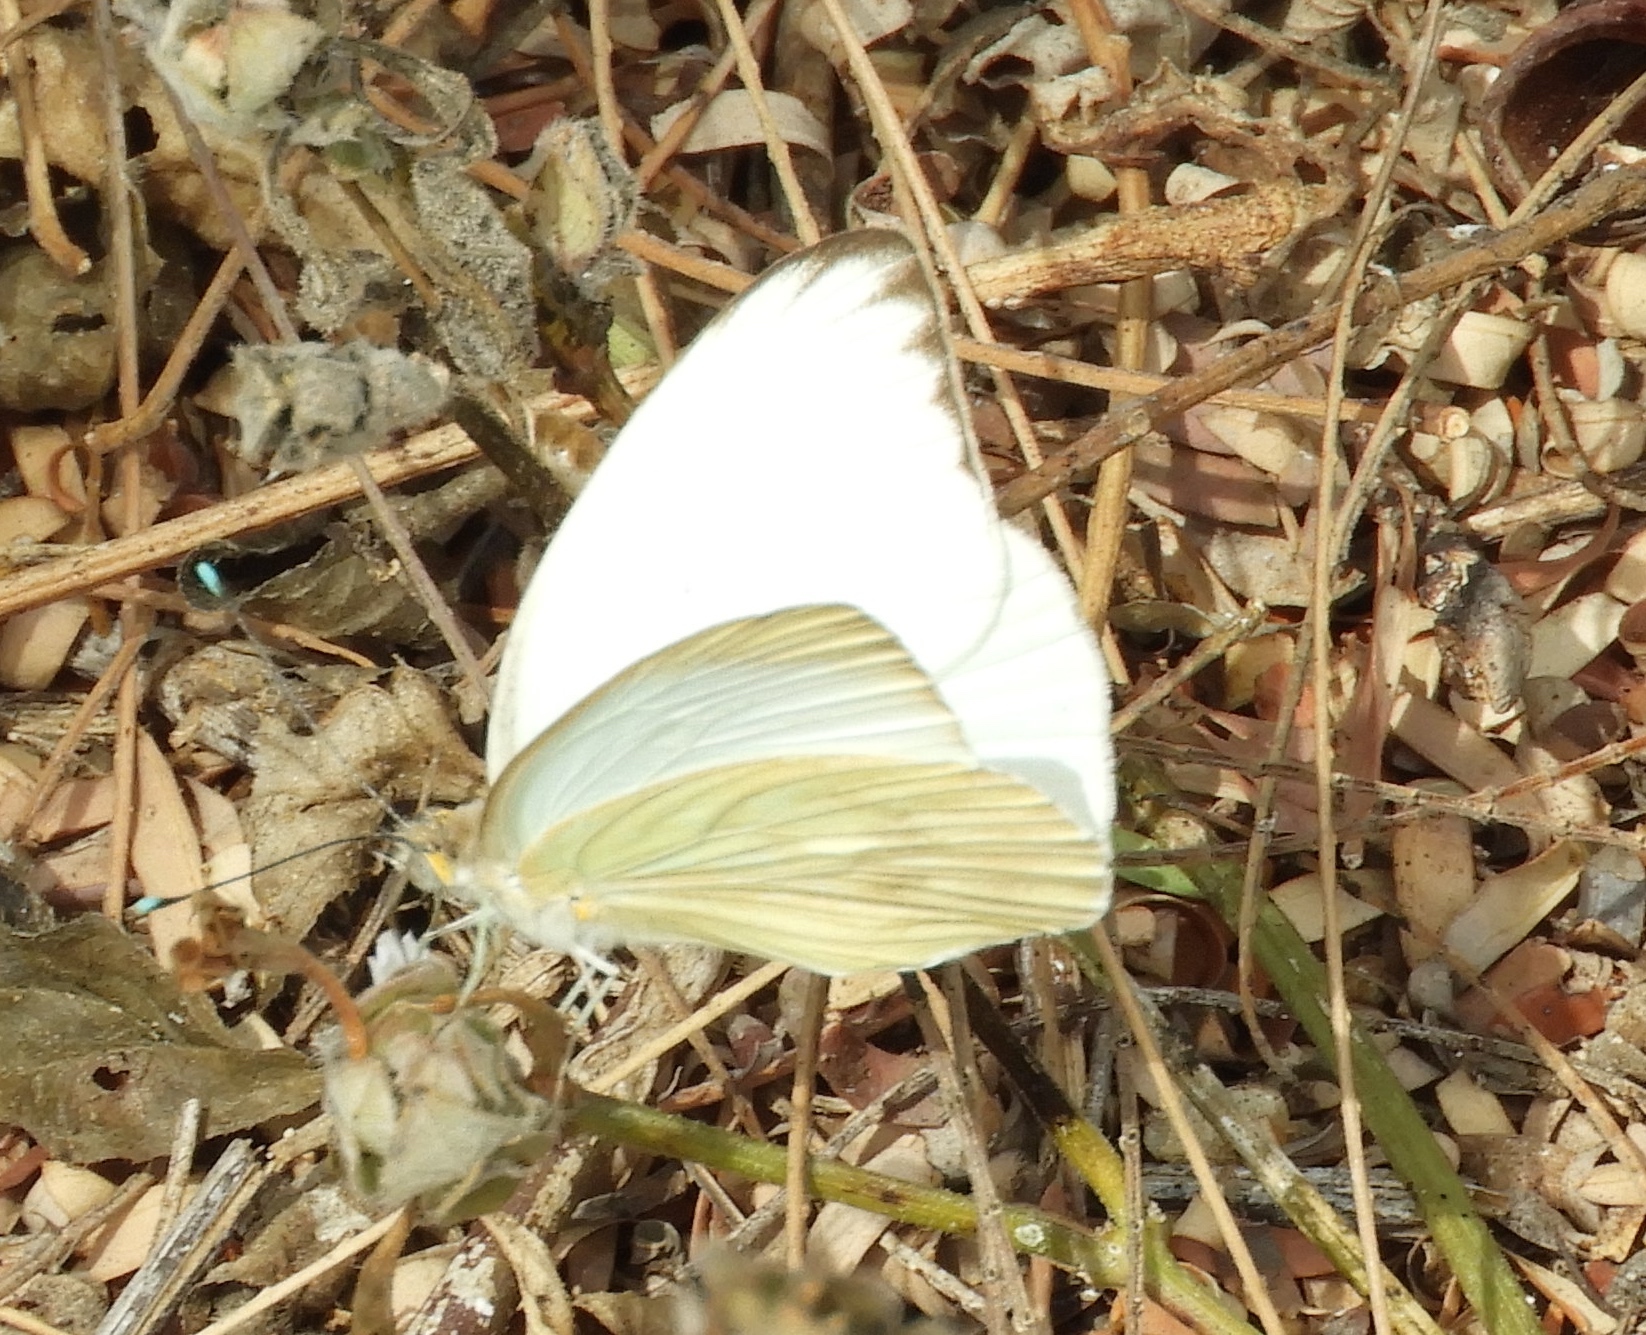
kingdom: Animalia
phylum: Arthropoda
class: Insecta
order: Lepidoptera
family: Pieridae
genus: Ascia
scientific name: Ascia monuste
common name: Great southern white
